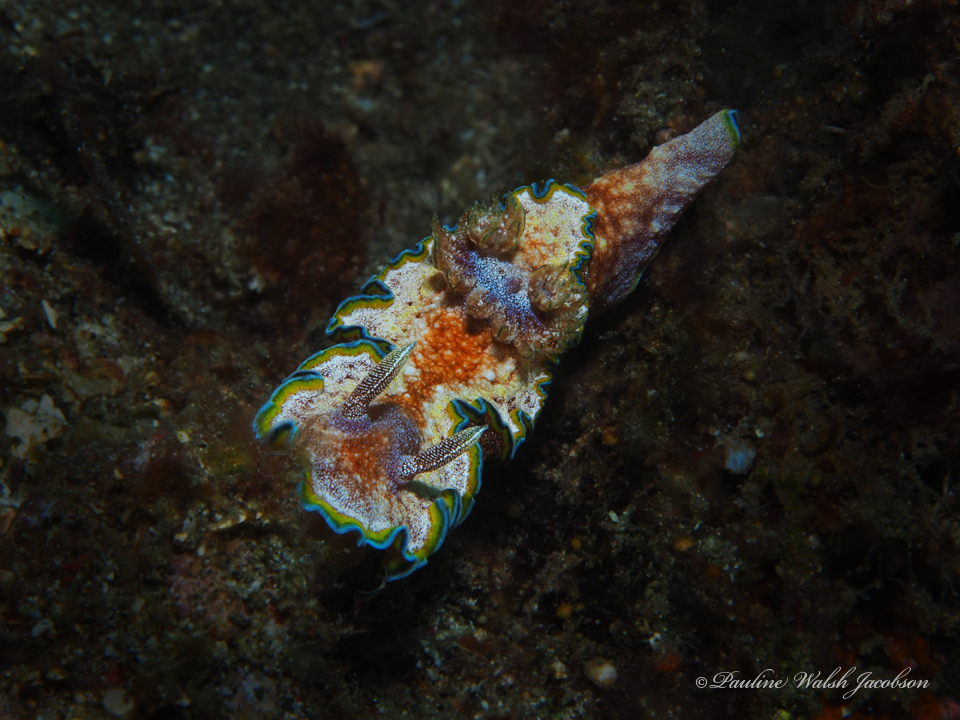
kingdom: Animalia
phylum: Mollusca
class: Gastropoda
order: Nudibranchia
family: Chromodorididae
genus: Glossodoris
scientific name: Glossodoris acosti
